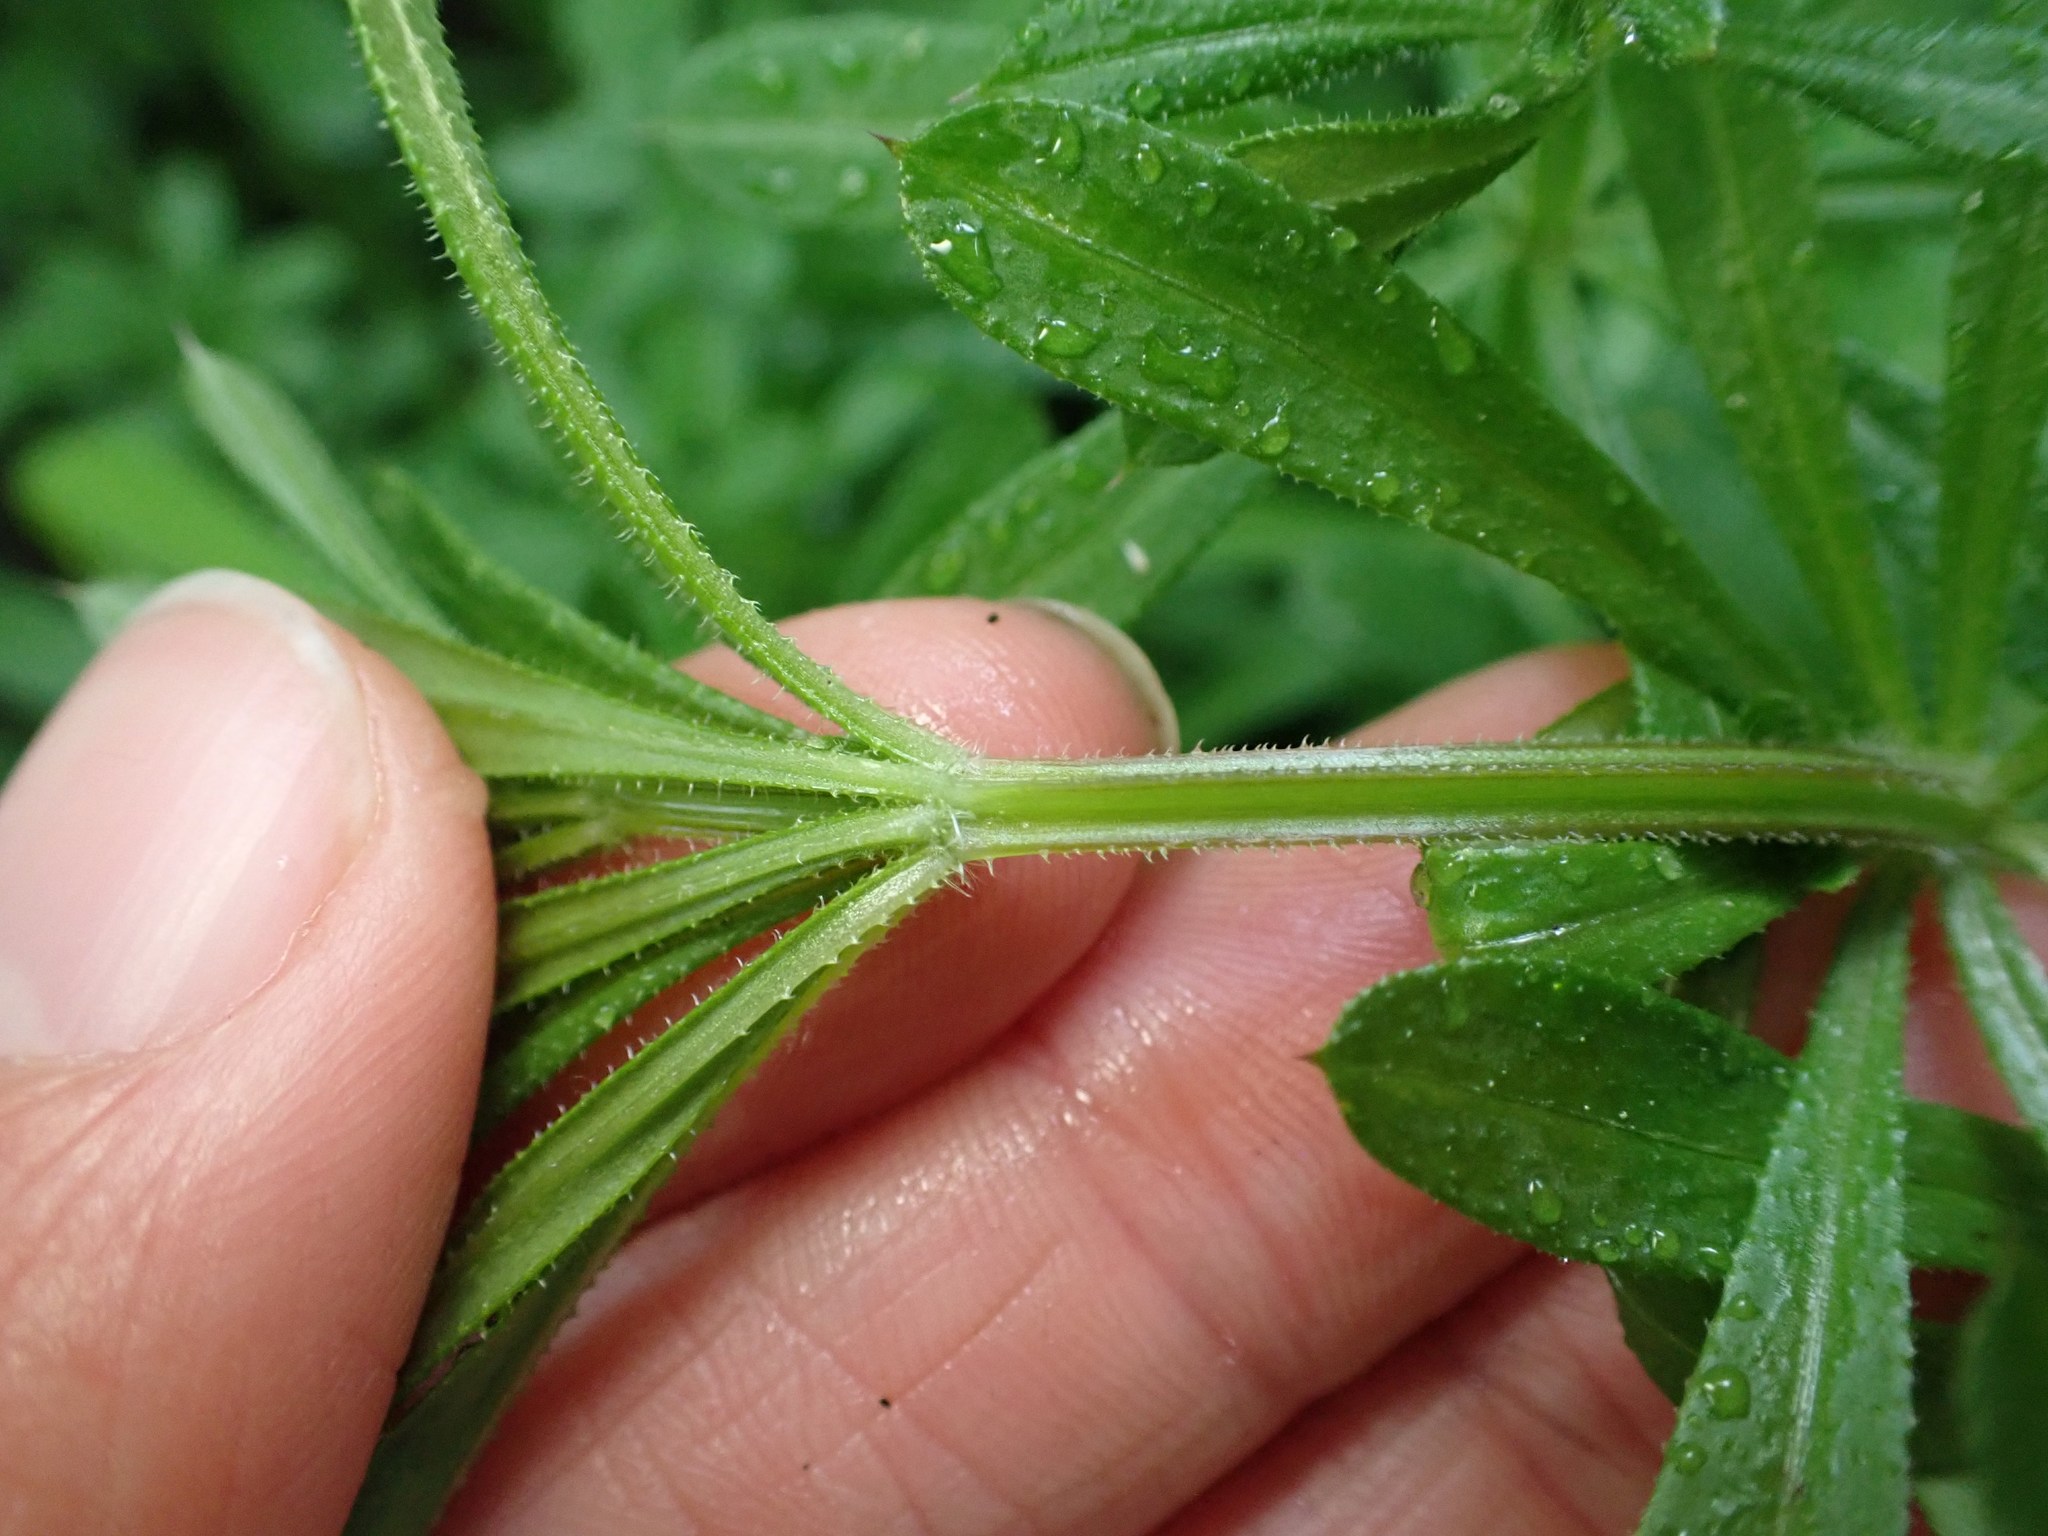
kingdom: Plantae
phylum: Tracheophyta
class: Magnoliopsida
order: Gentianales
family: Rubiaceae
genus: Galium
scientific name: Galium aparine
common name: Cleavers
